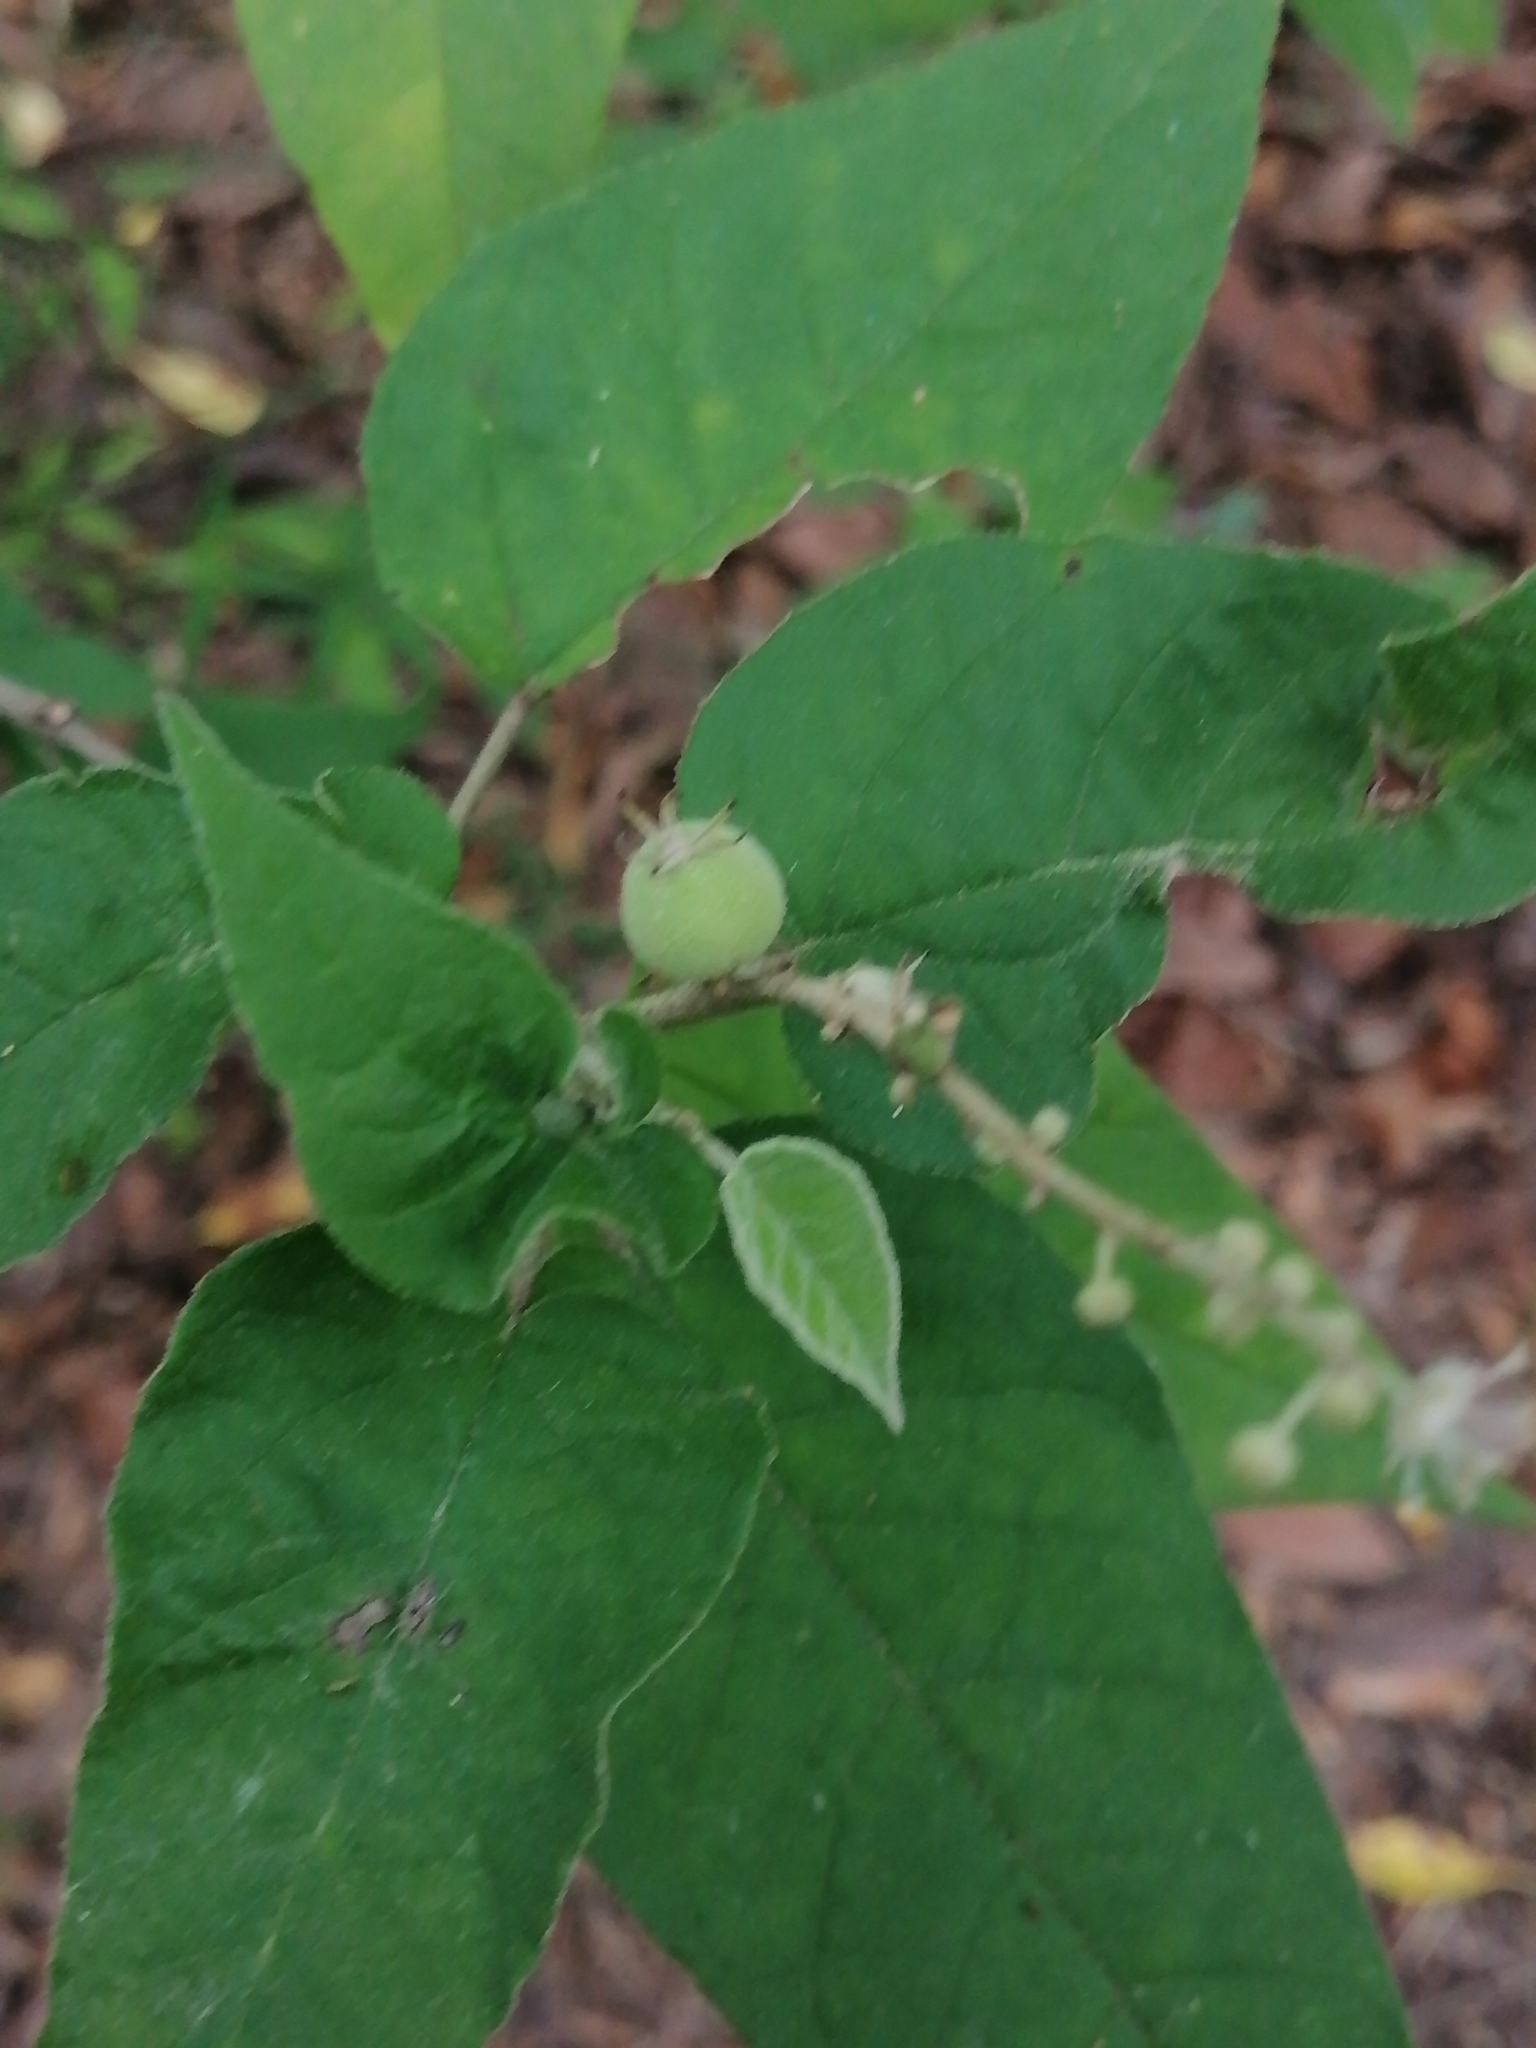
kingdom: Plantae
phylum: Tracheophyta
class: Magnoliopsida
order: Malpighiales
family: Euphorbiaceae
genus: Croton
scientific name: Croton fruticulosus
